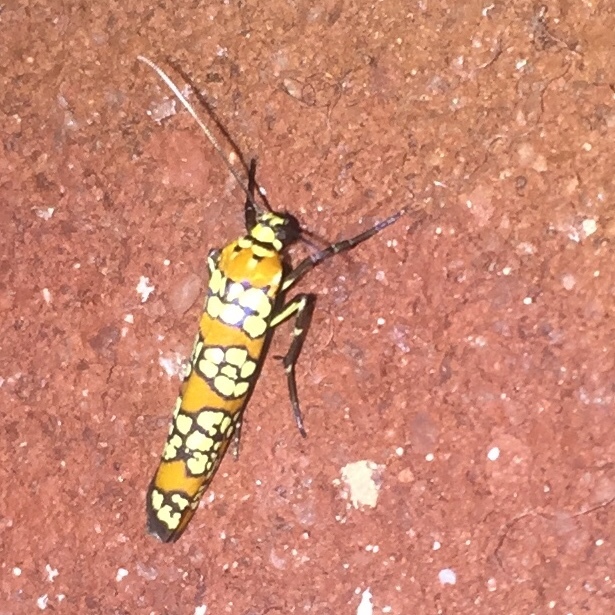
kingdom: Animalia
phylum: Arthropoda
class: Insecta
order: Lepidoptera
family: Attevidae
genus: Atteva
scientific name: Atteva punctella
